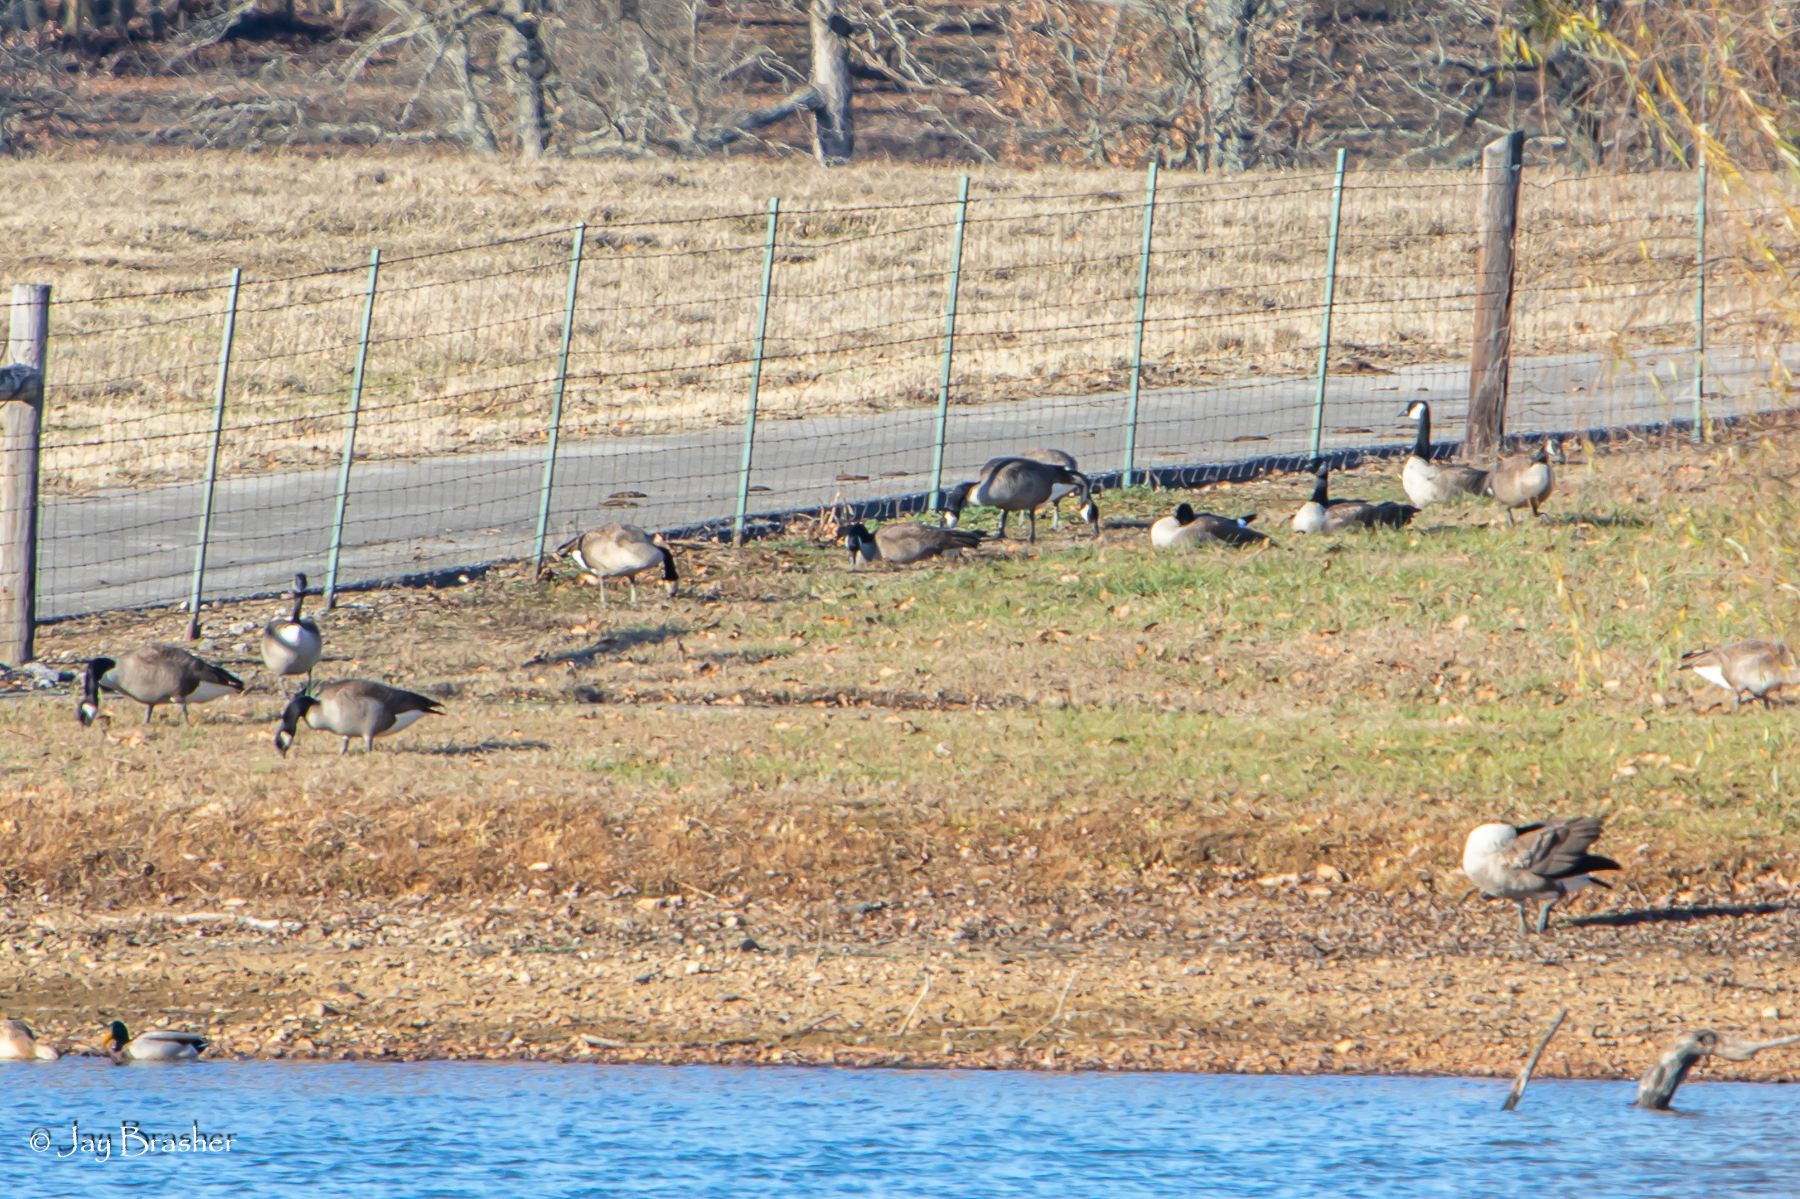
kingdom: Animalia
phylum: Chordata
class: Aves
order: Anseriformes
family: Anatidae
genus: Branta
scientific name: Branta canadensis
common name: Canada goose
